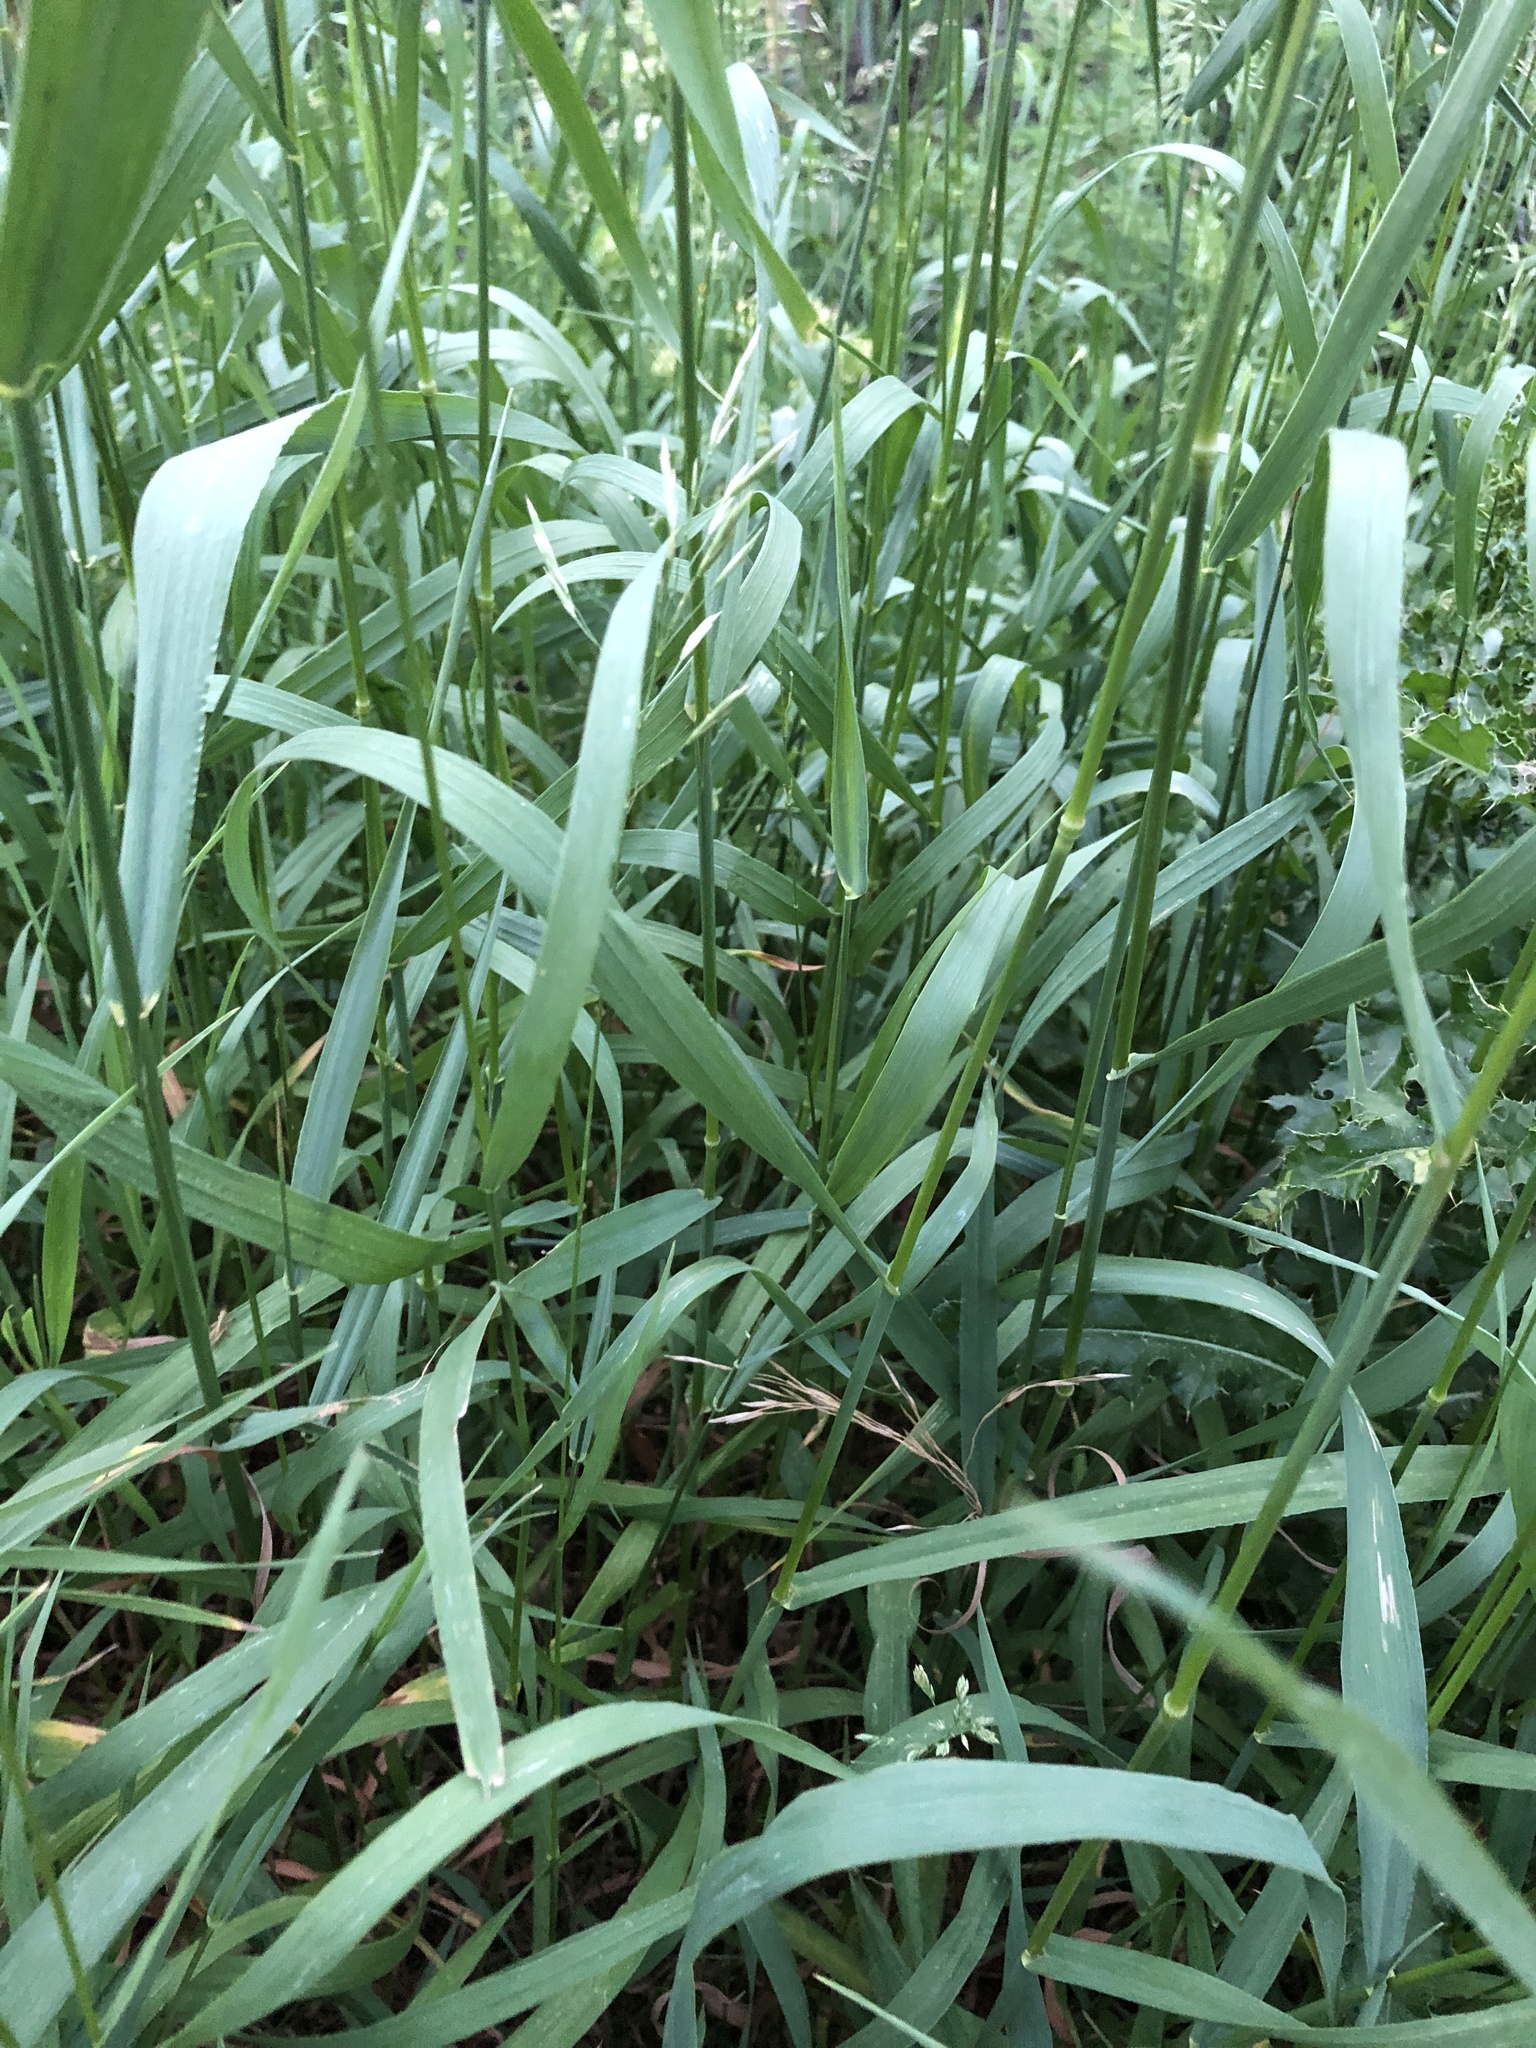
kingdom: Plantae
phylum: Tracheophyta
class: Liliopsida
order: Poales
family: Poaceae
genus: Bromus
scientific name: Bromus inermis
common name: Smooth brome
